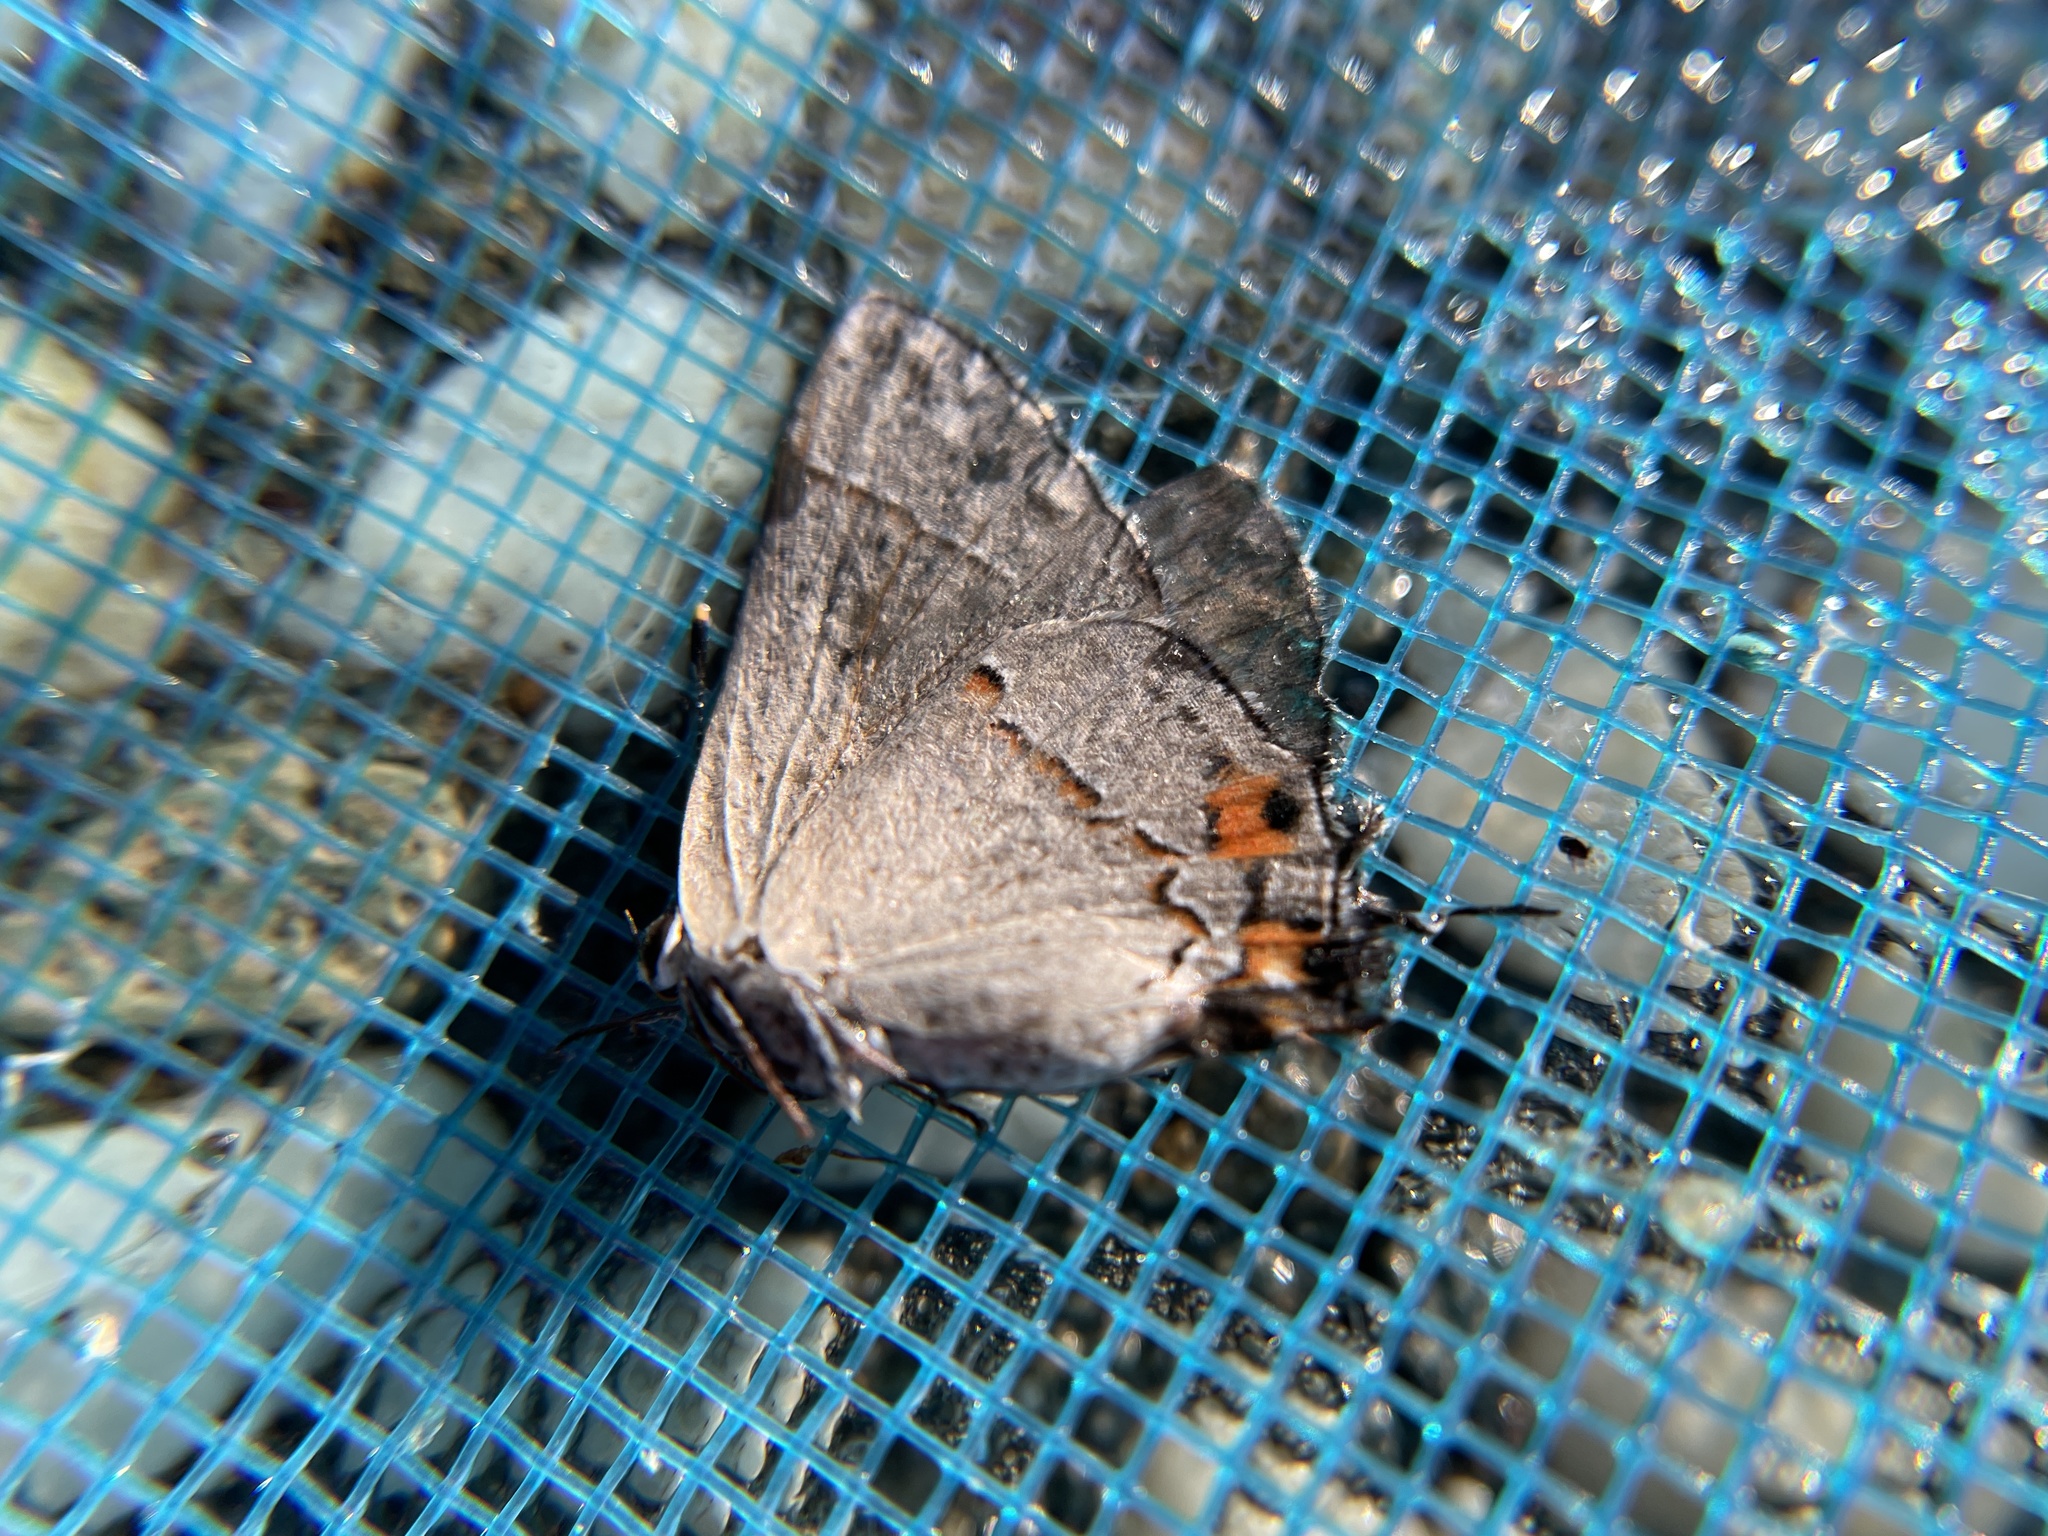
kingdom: Animalia
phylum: Arthropoda
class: Insecta
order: Lepidoptera
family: Lycaenidae
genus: Strymon
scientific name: Strymon melinus
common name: Gray hairstreak
